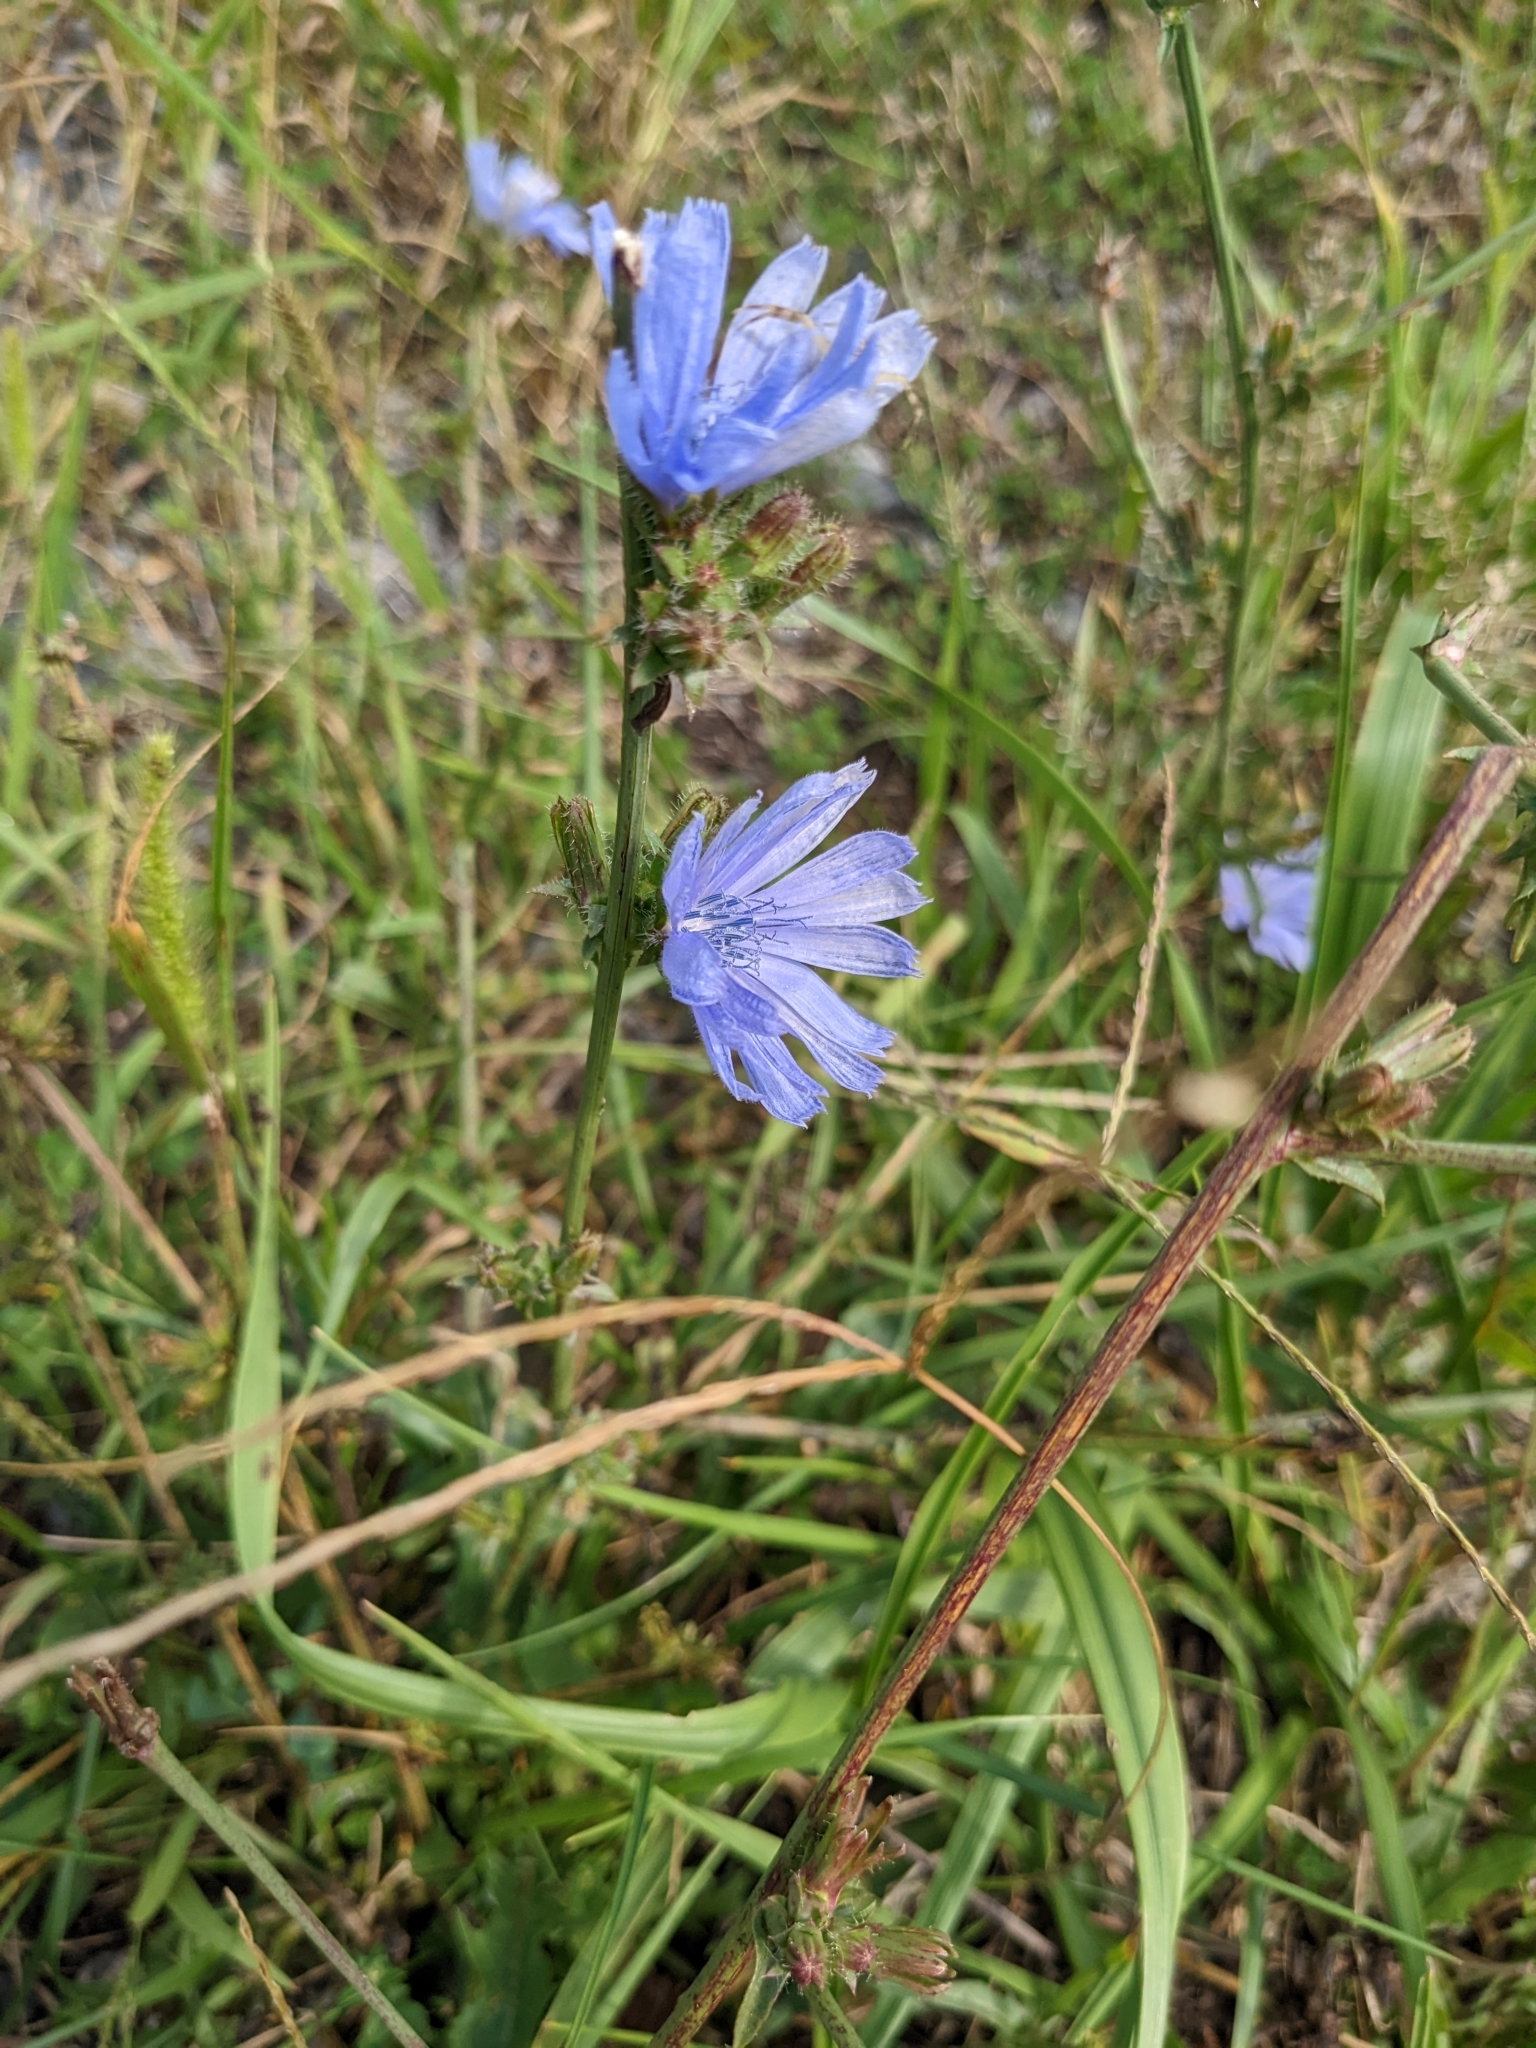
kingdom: Plantae
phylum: Tracheophyta
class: Magnoliopsida
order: Asterales
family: Asteraceae
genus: Cichorium
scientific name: Cichorium intybus
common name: Chicory
